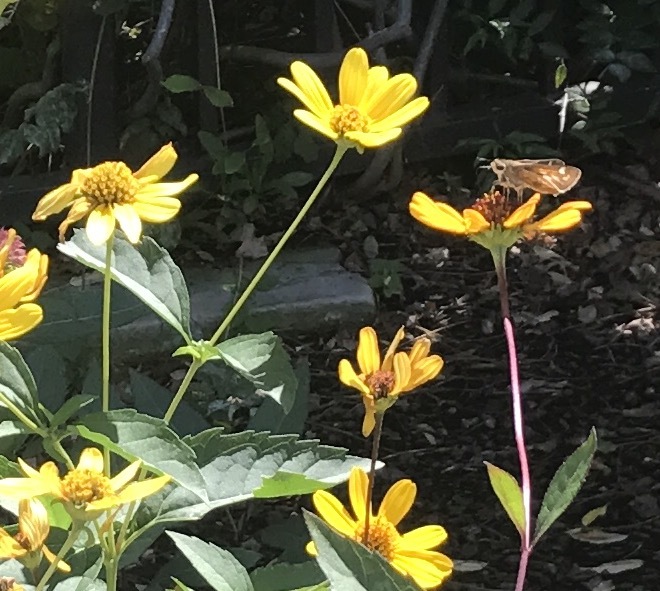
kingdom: Animalia
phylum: Arthropoda
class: Insecta
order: Lepidoptera
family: Hesperiidae
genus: Atalopedes
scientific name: Atalopedes
